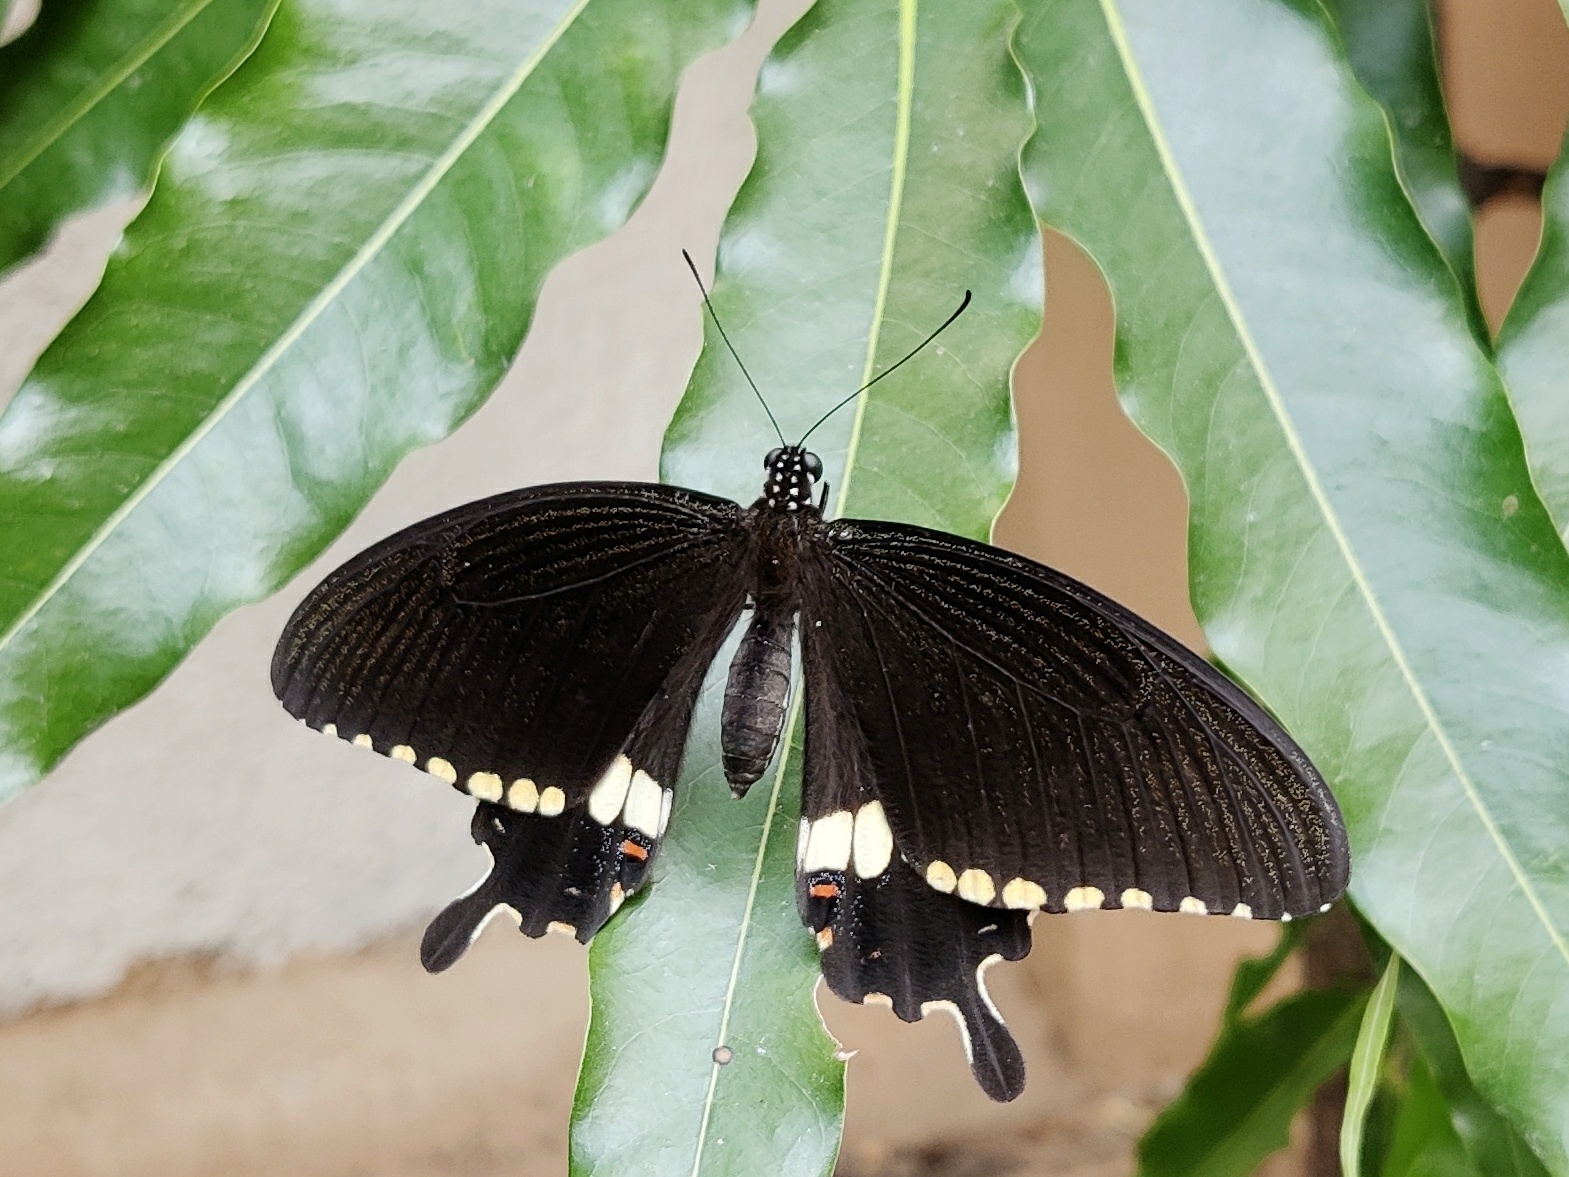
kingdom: Animalia
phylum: Arthropoda
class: Insecta
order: Lepidoptera
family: Papilionidae
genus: Papilio
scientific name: Papilio polytes
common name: Common mormon
